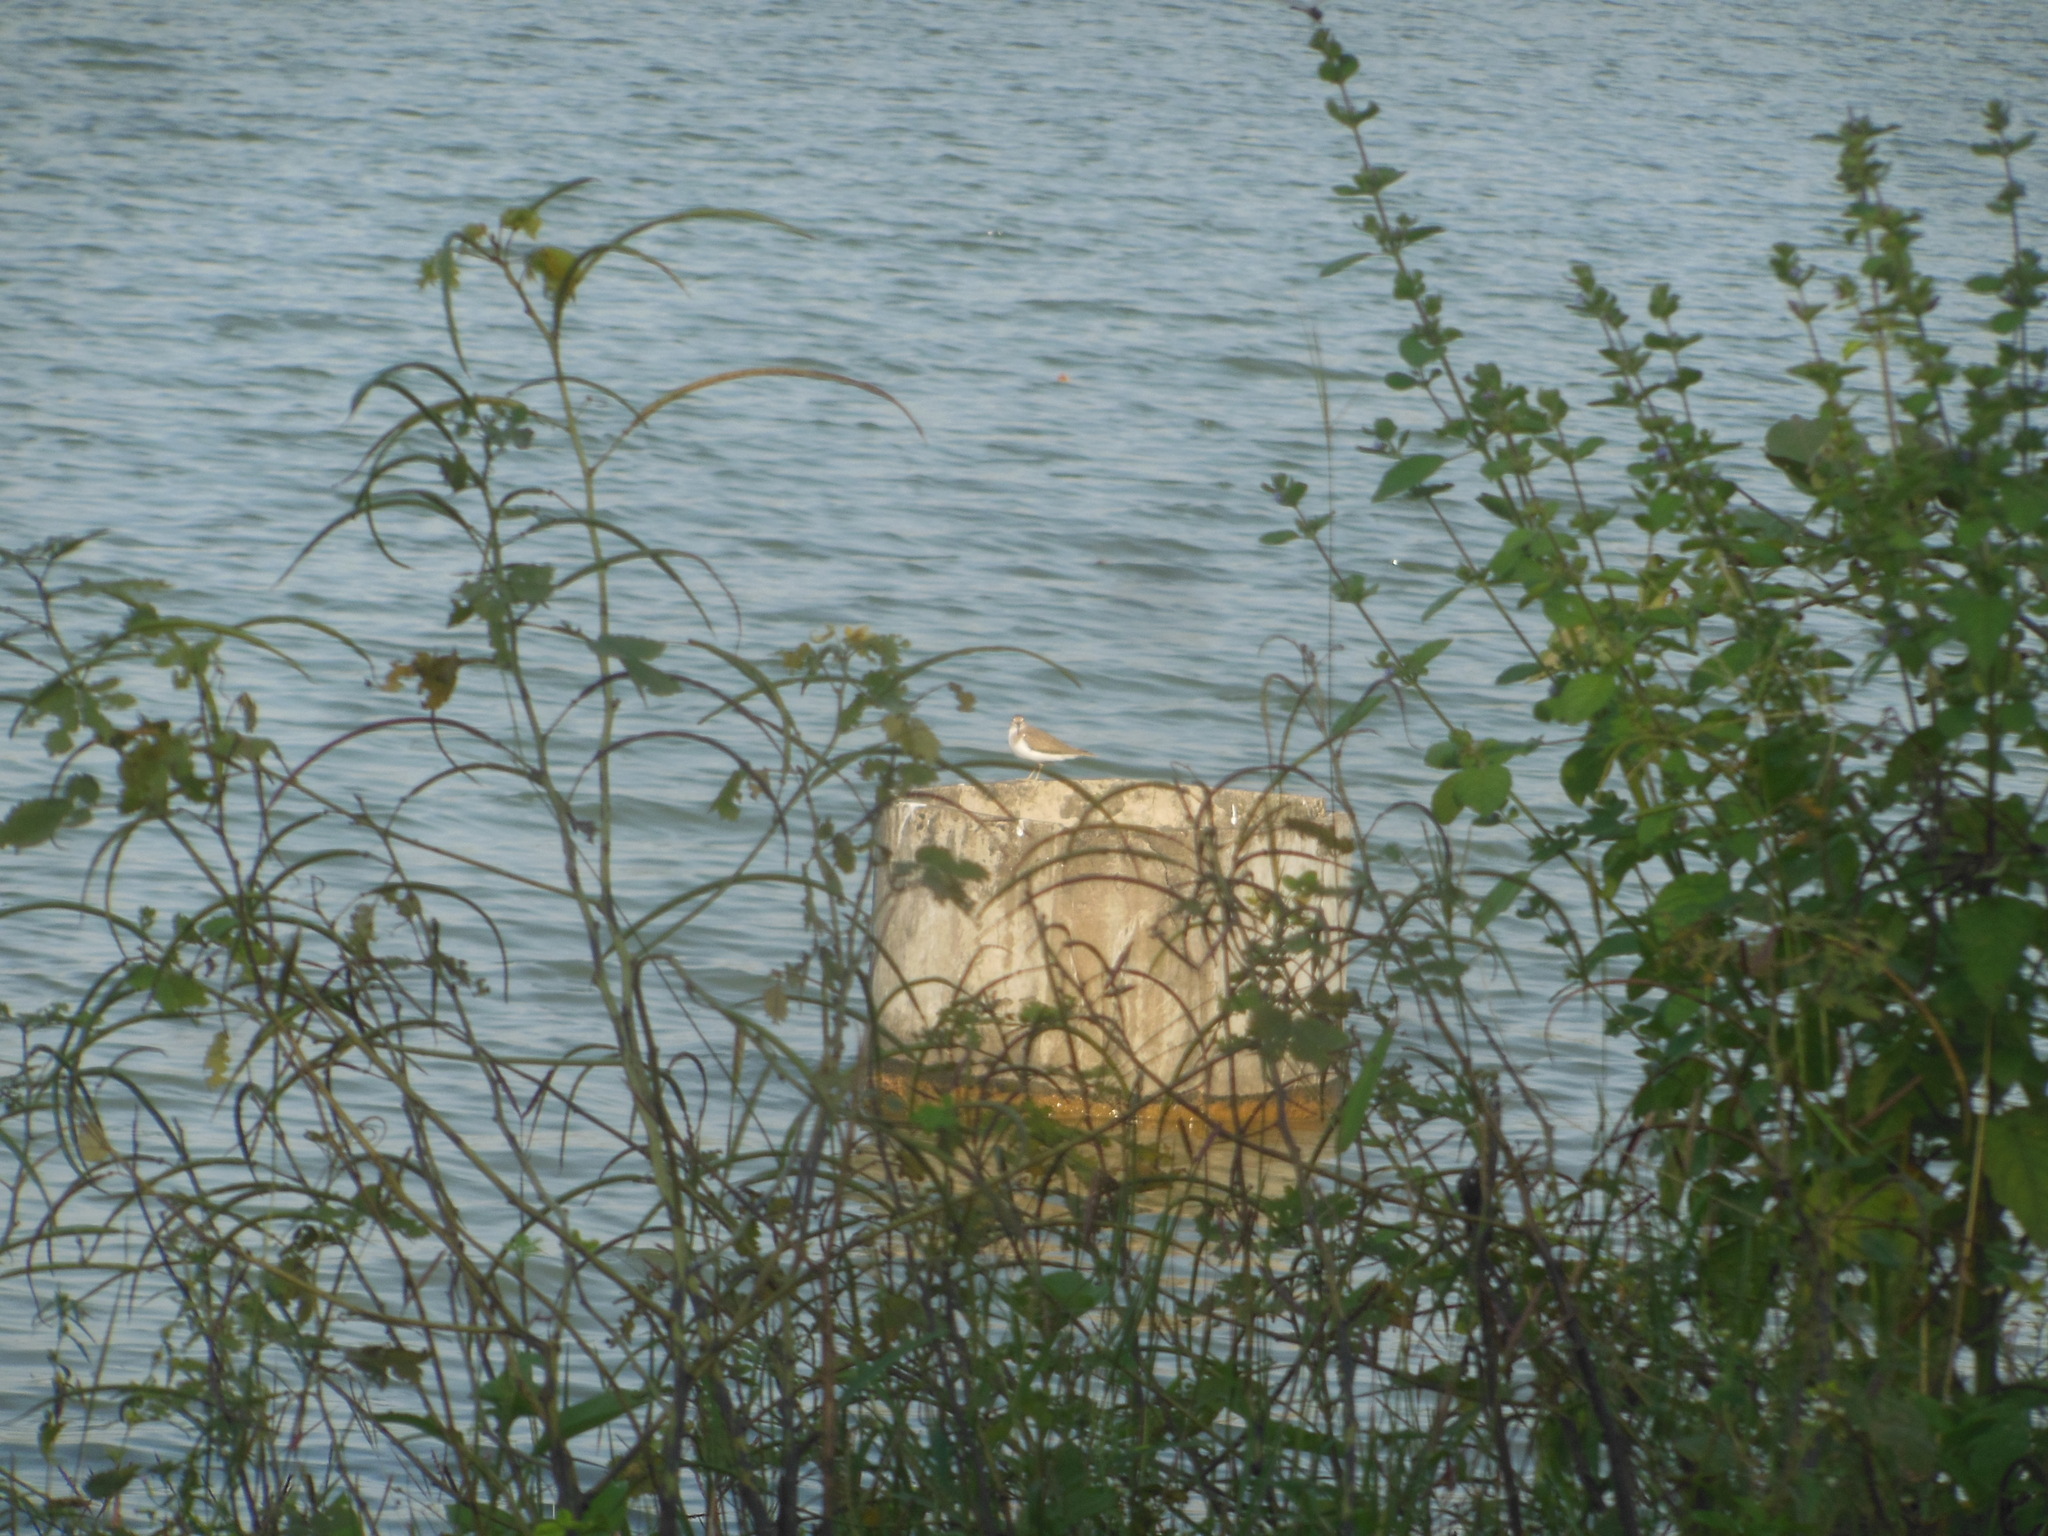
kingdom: Animalia
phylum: Chordata
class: Aves
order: Charadriiformes
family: Scolopacidae
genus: Actitis
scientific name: Actitis hypoleucos
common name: Common sandpiper
